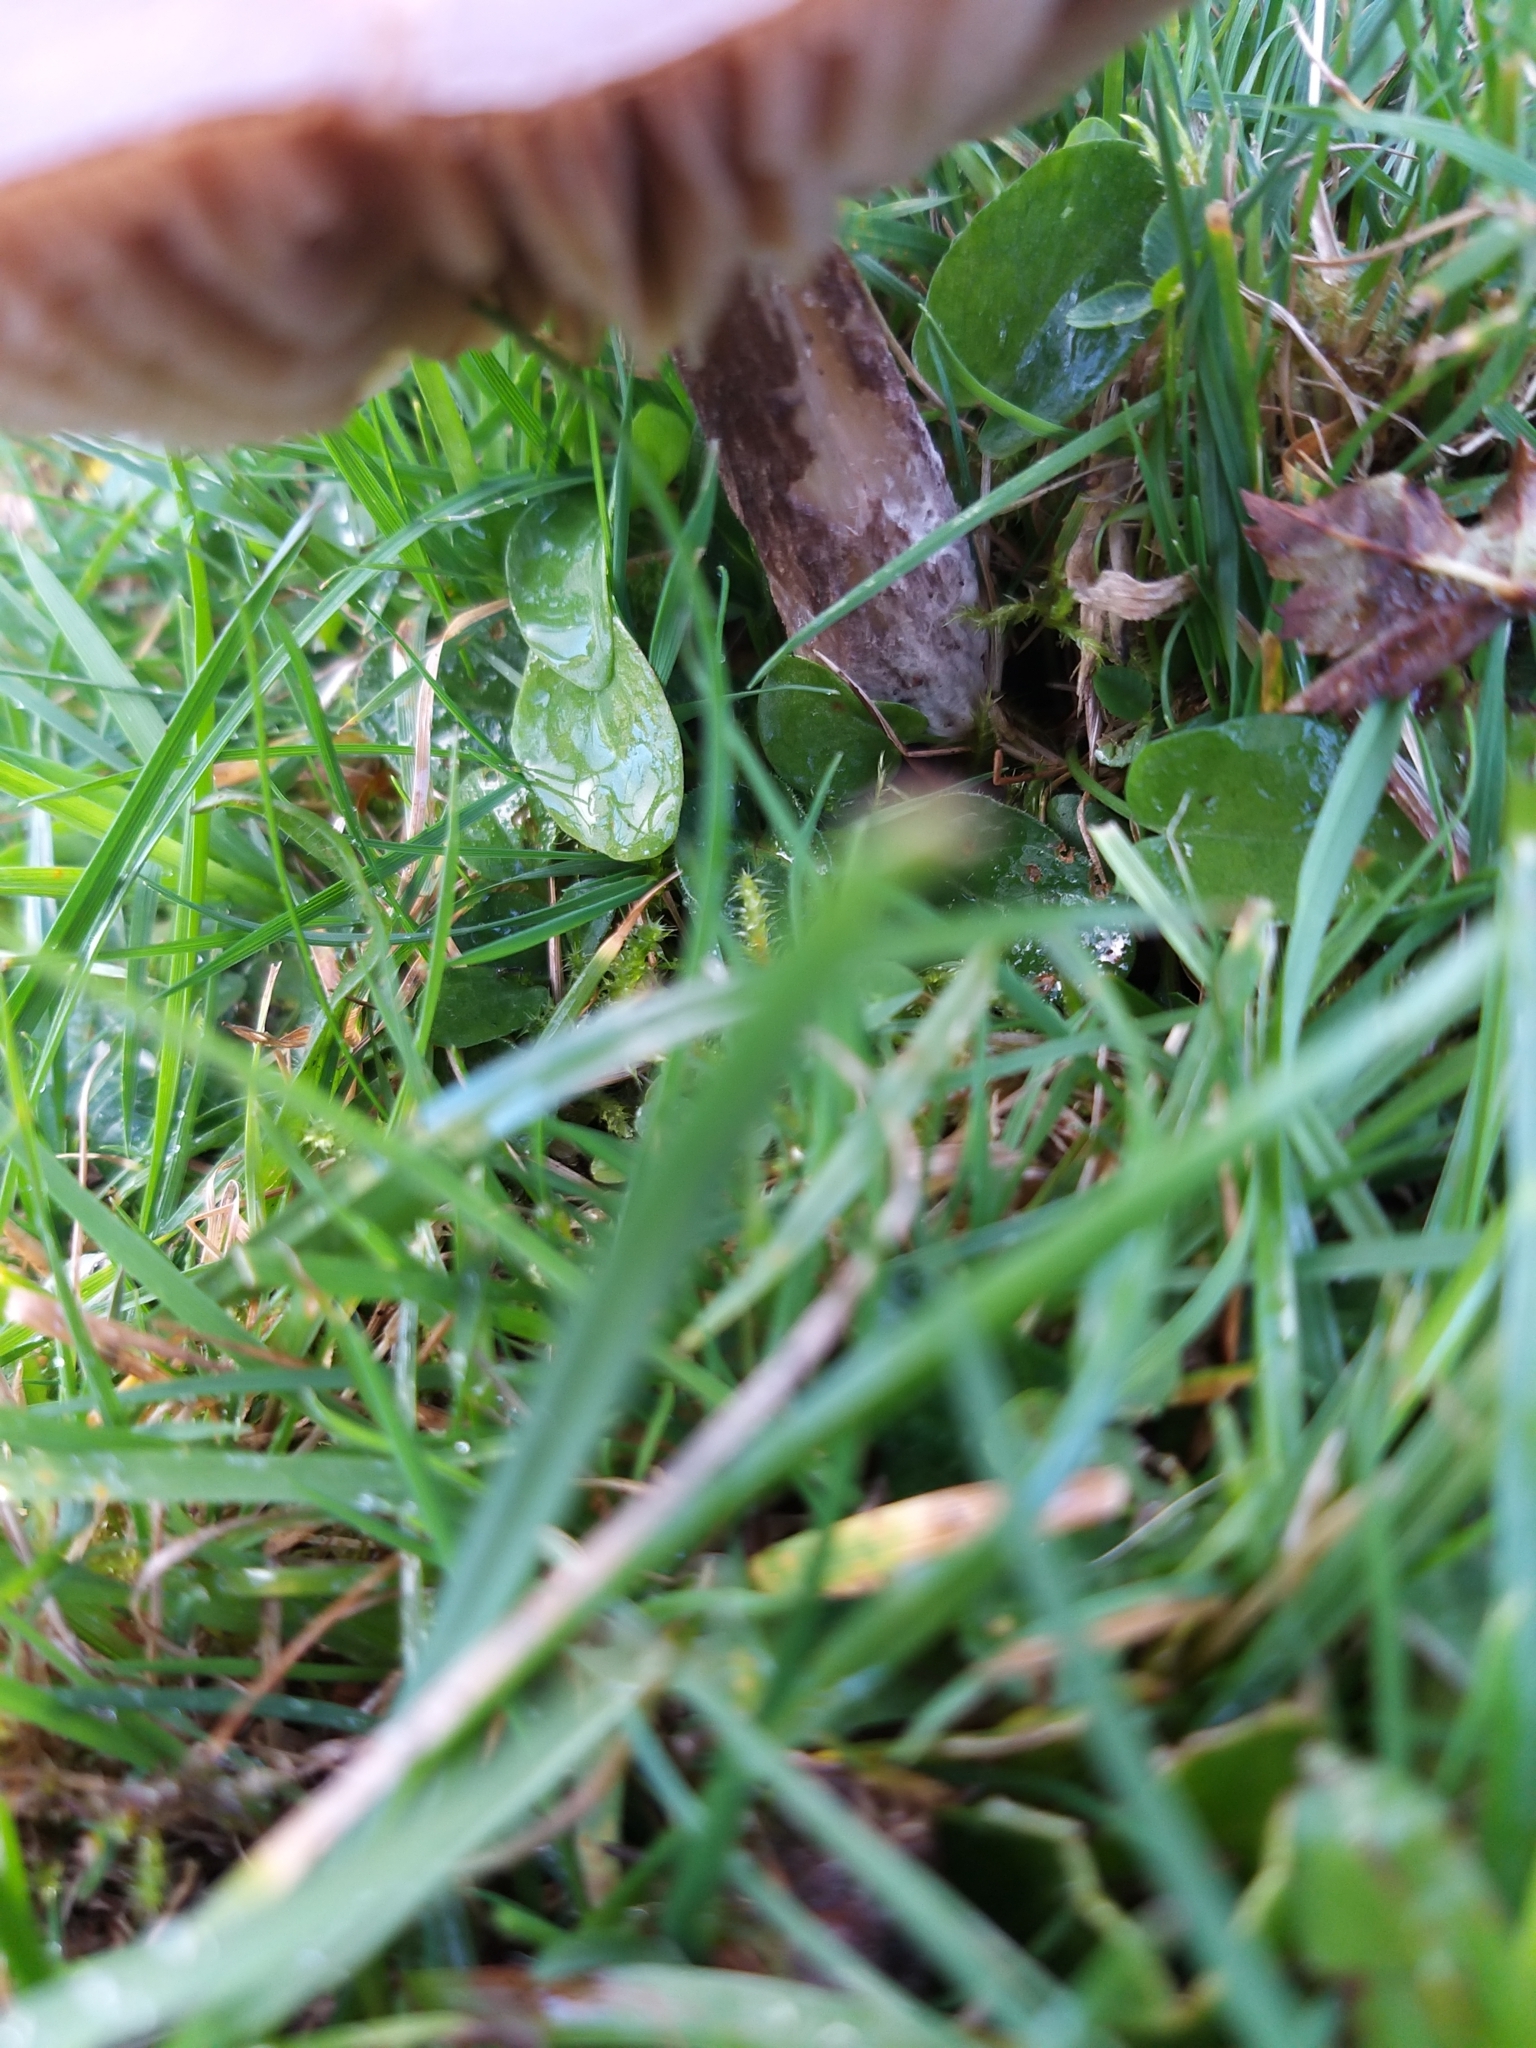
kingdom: Fungi
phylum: Basidiomycota
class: Agaricomycetes
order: Agaricales
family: Entolomataceae
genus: Entoloma
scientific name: Entoloma porphyrophaeum
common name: Lilac pinkgill
